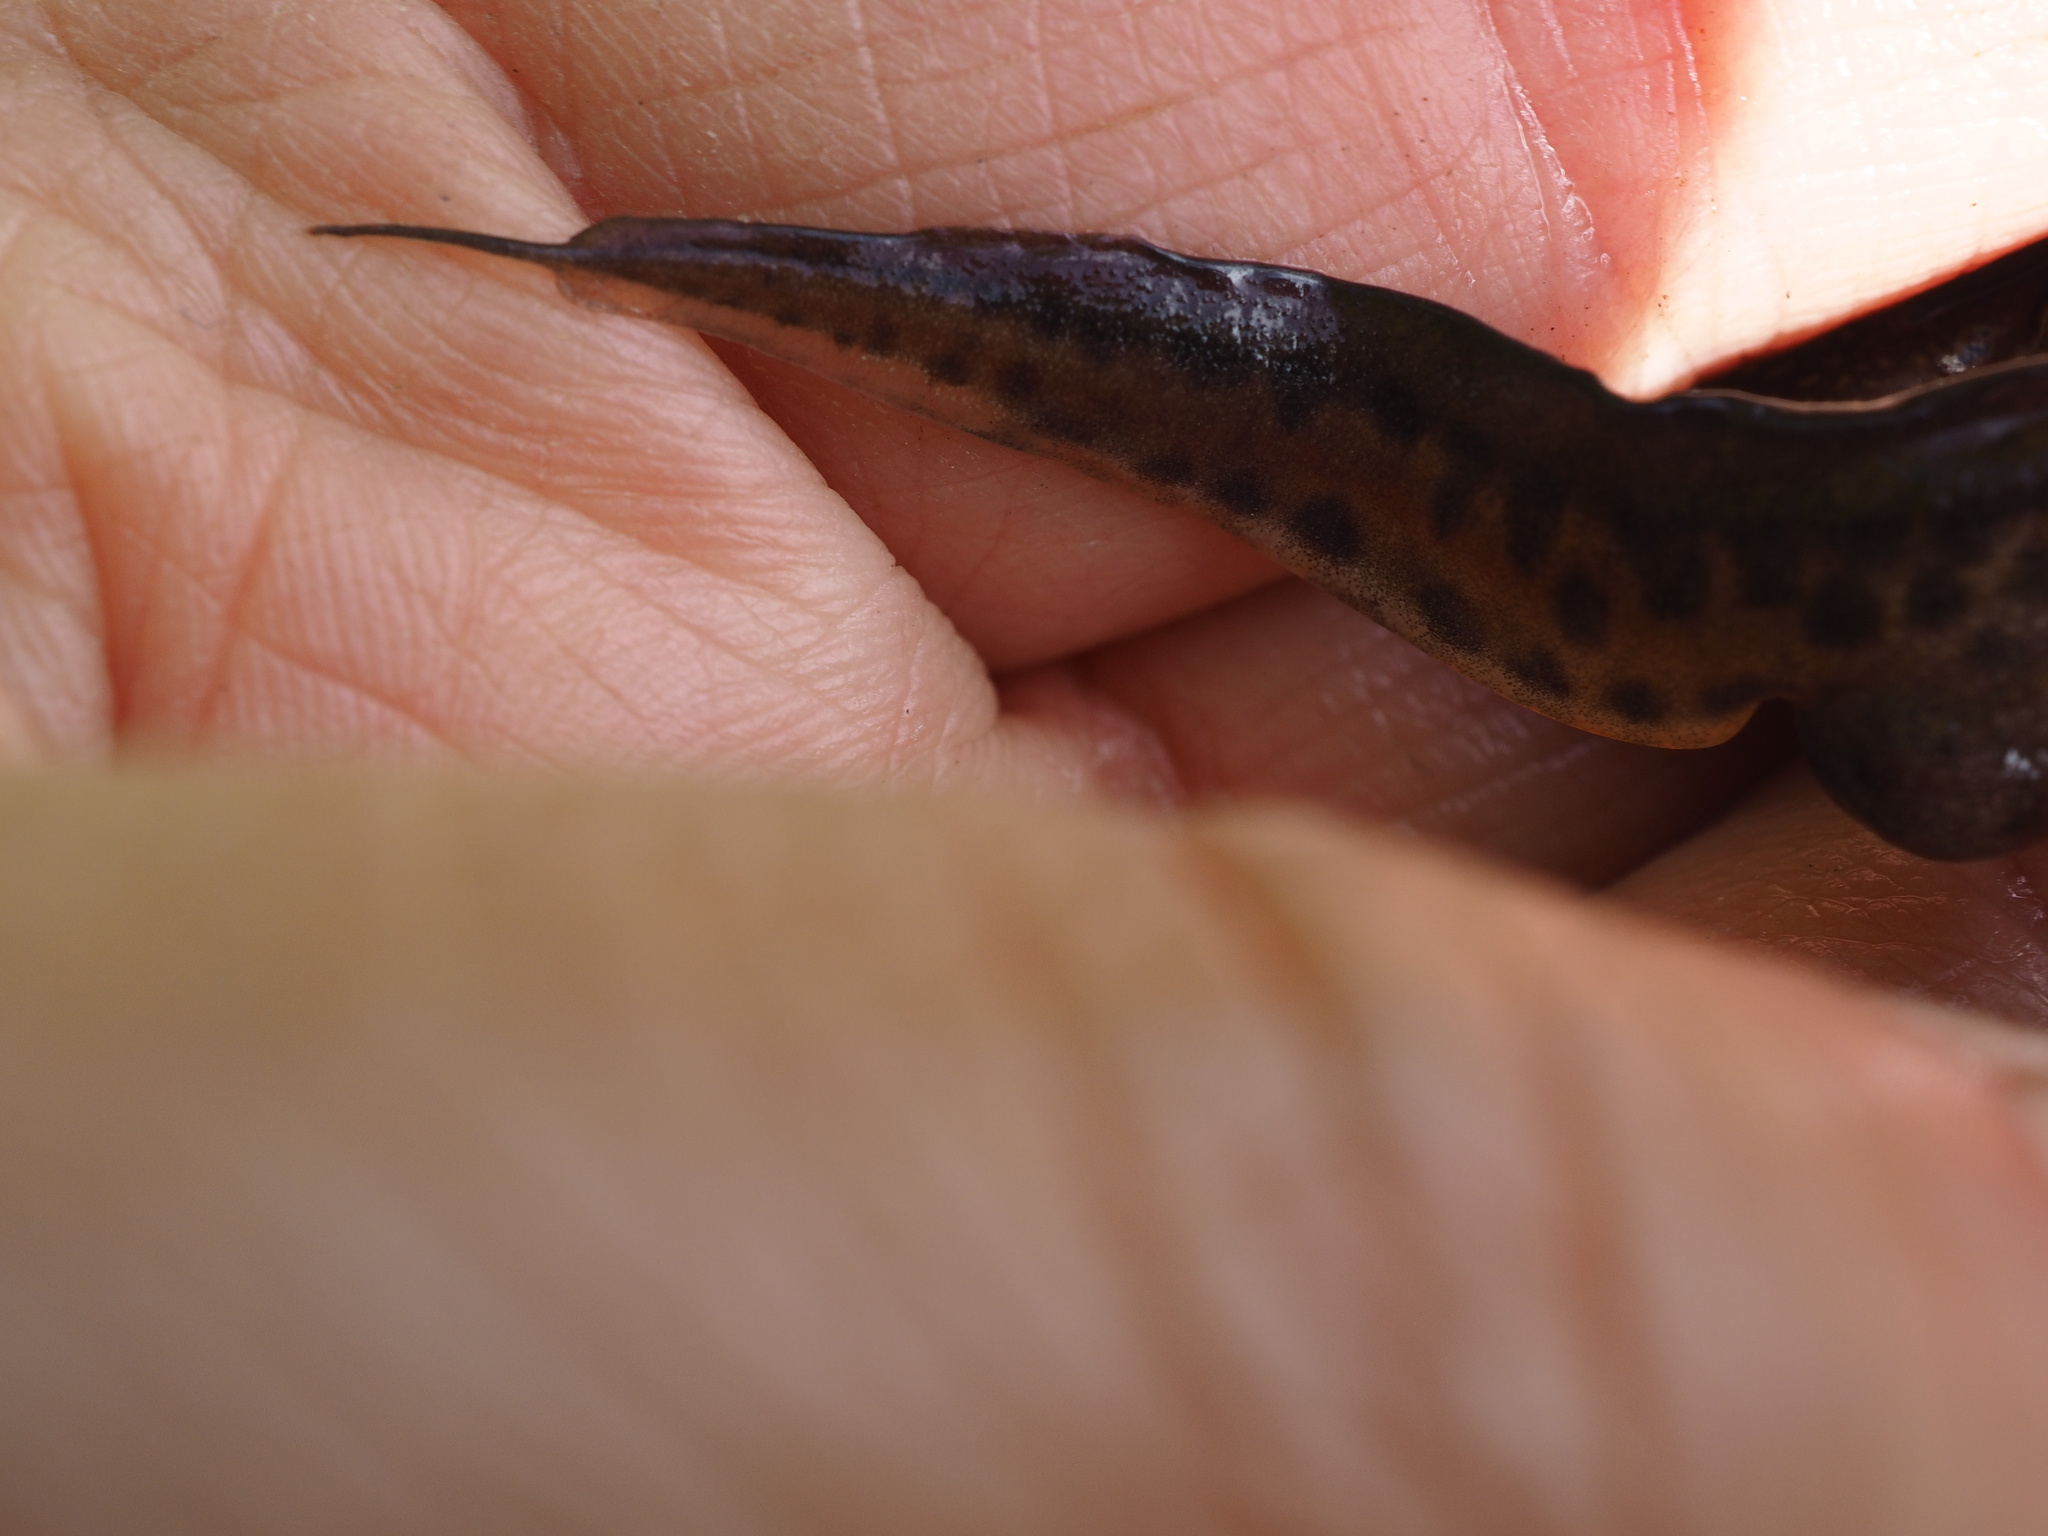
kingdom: Animalia
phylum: Chordata
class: Amphibia
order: Caudata
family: Salamandridae
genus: Lissotriton
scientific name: Lissotriton helveticus
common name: Palmate newt
